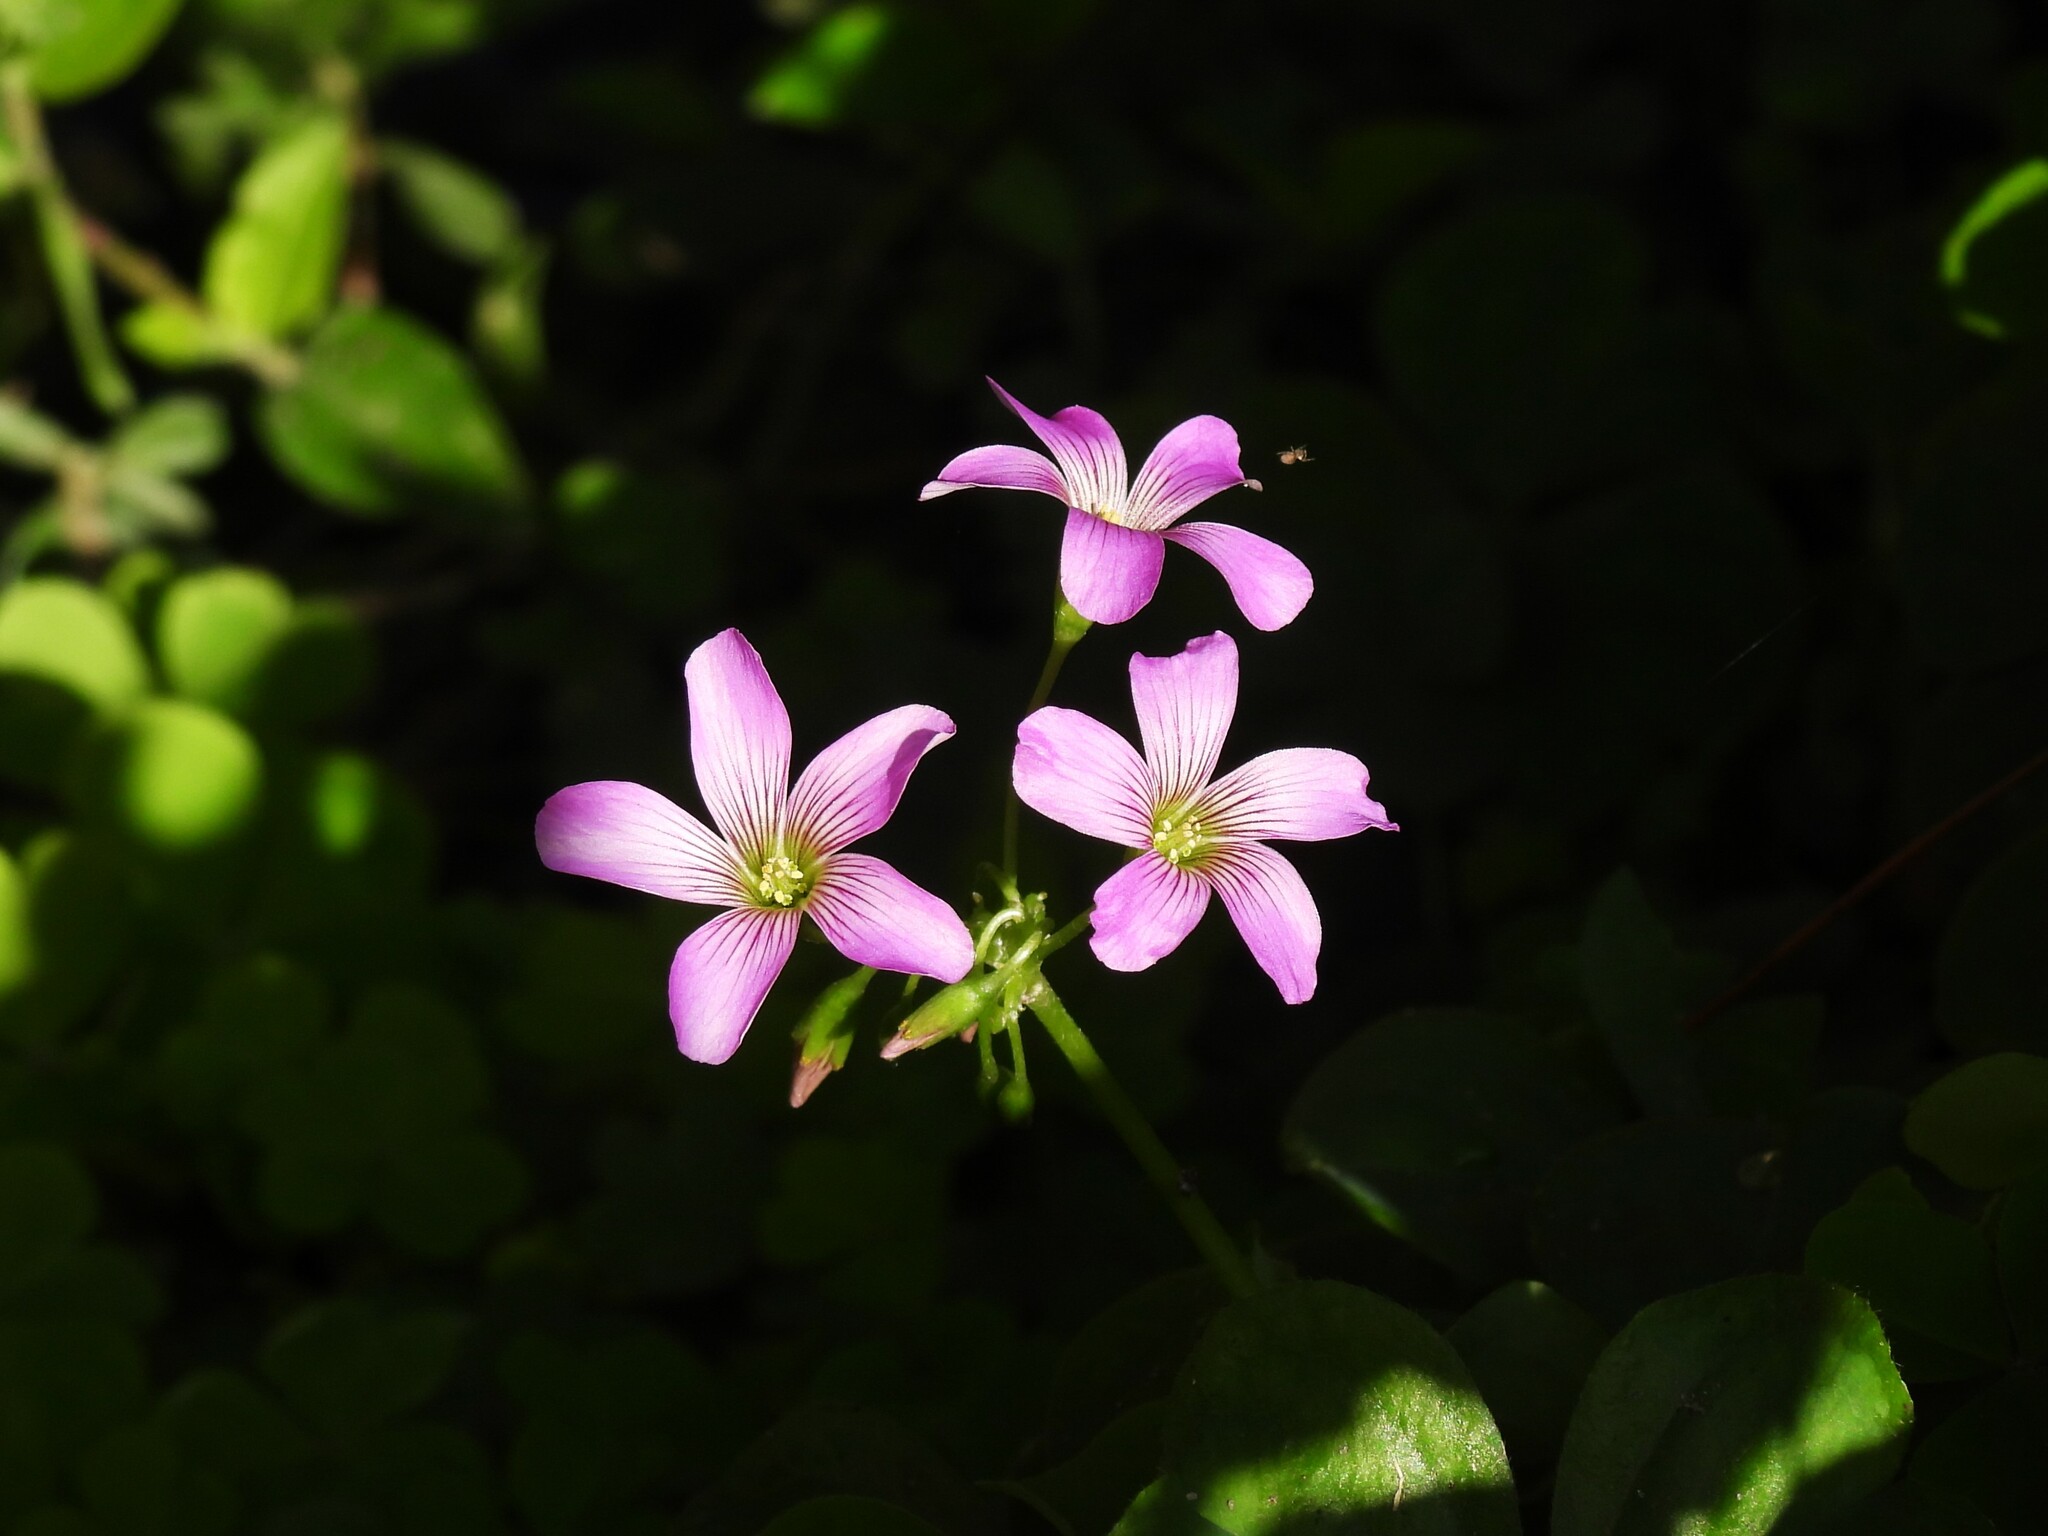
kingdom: Plantae
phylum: Tracheophyta
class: Magnoliopsida
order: Oxalidales
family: Oxalidaceae
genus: Oxalis
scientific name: Oxalis debilis
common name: Large-flowered pink-sorrel
